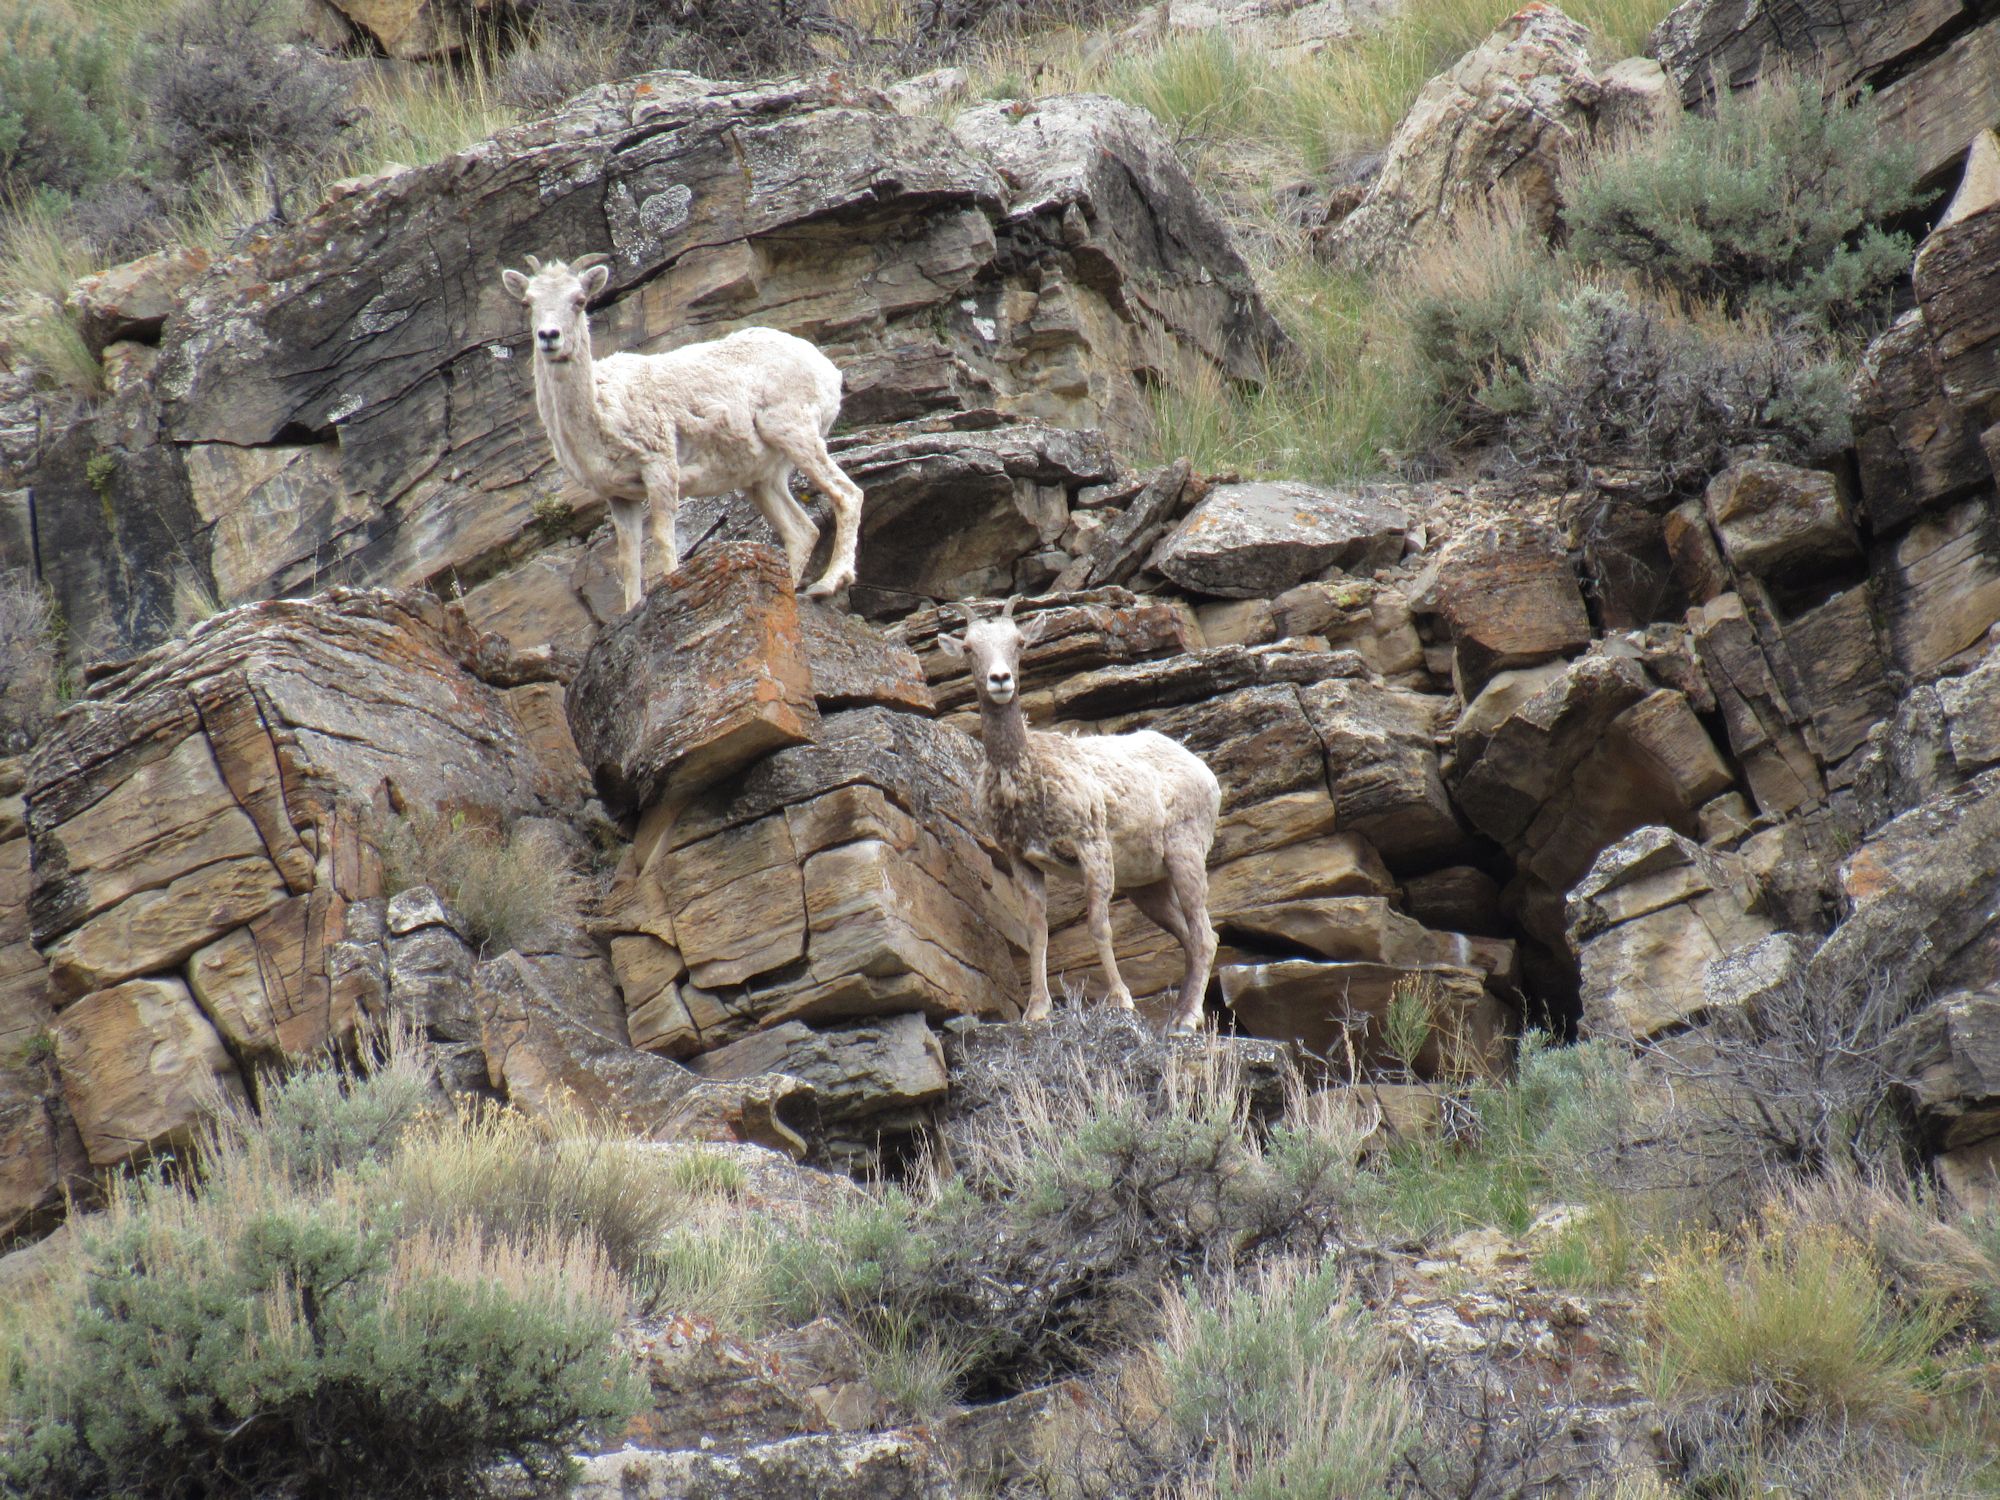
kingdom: Animalia
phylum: Chordata
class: Mammalia
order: Artiodactyla
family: Bovidae
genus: Ovis
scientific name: Ovis canadensis
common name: Bighorn sheep
